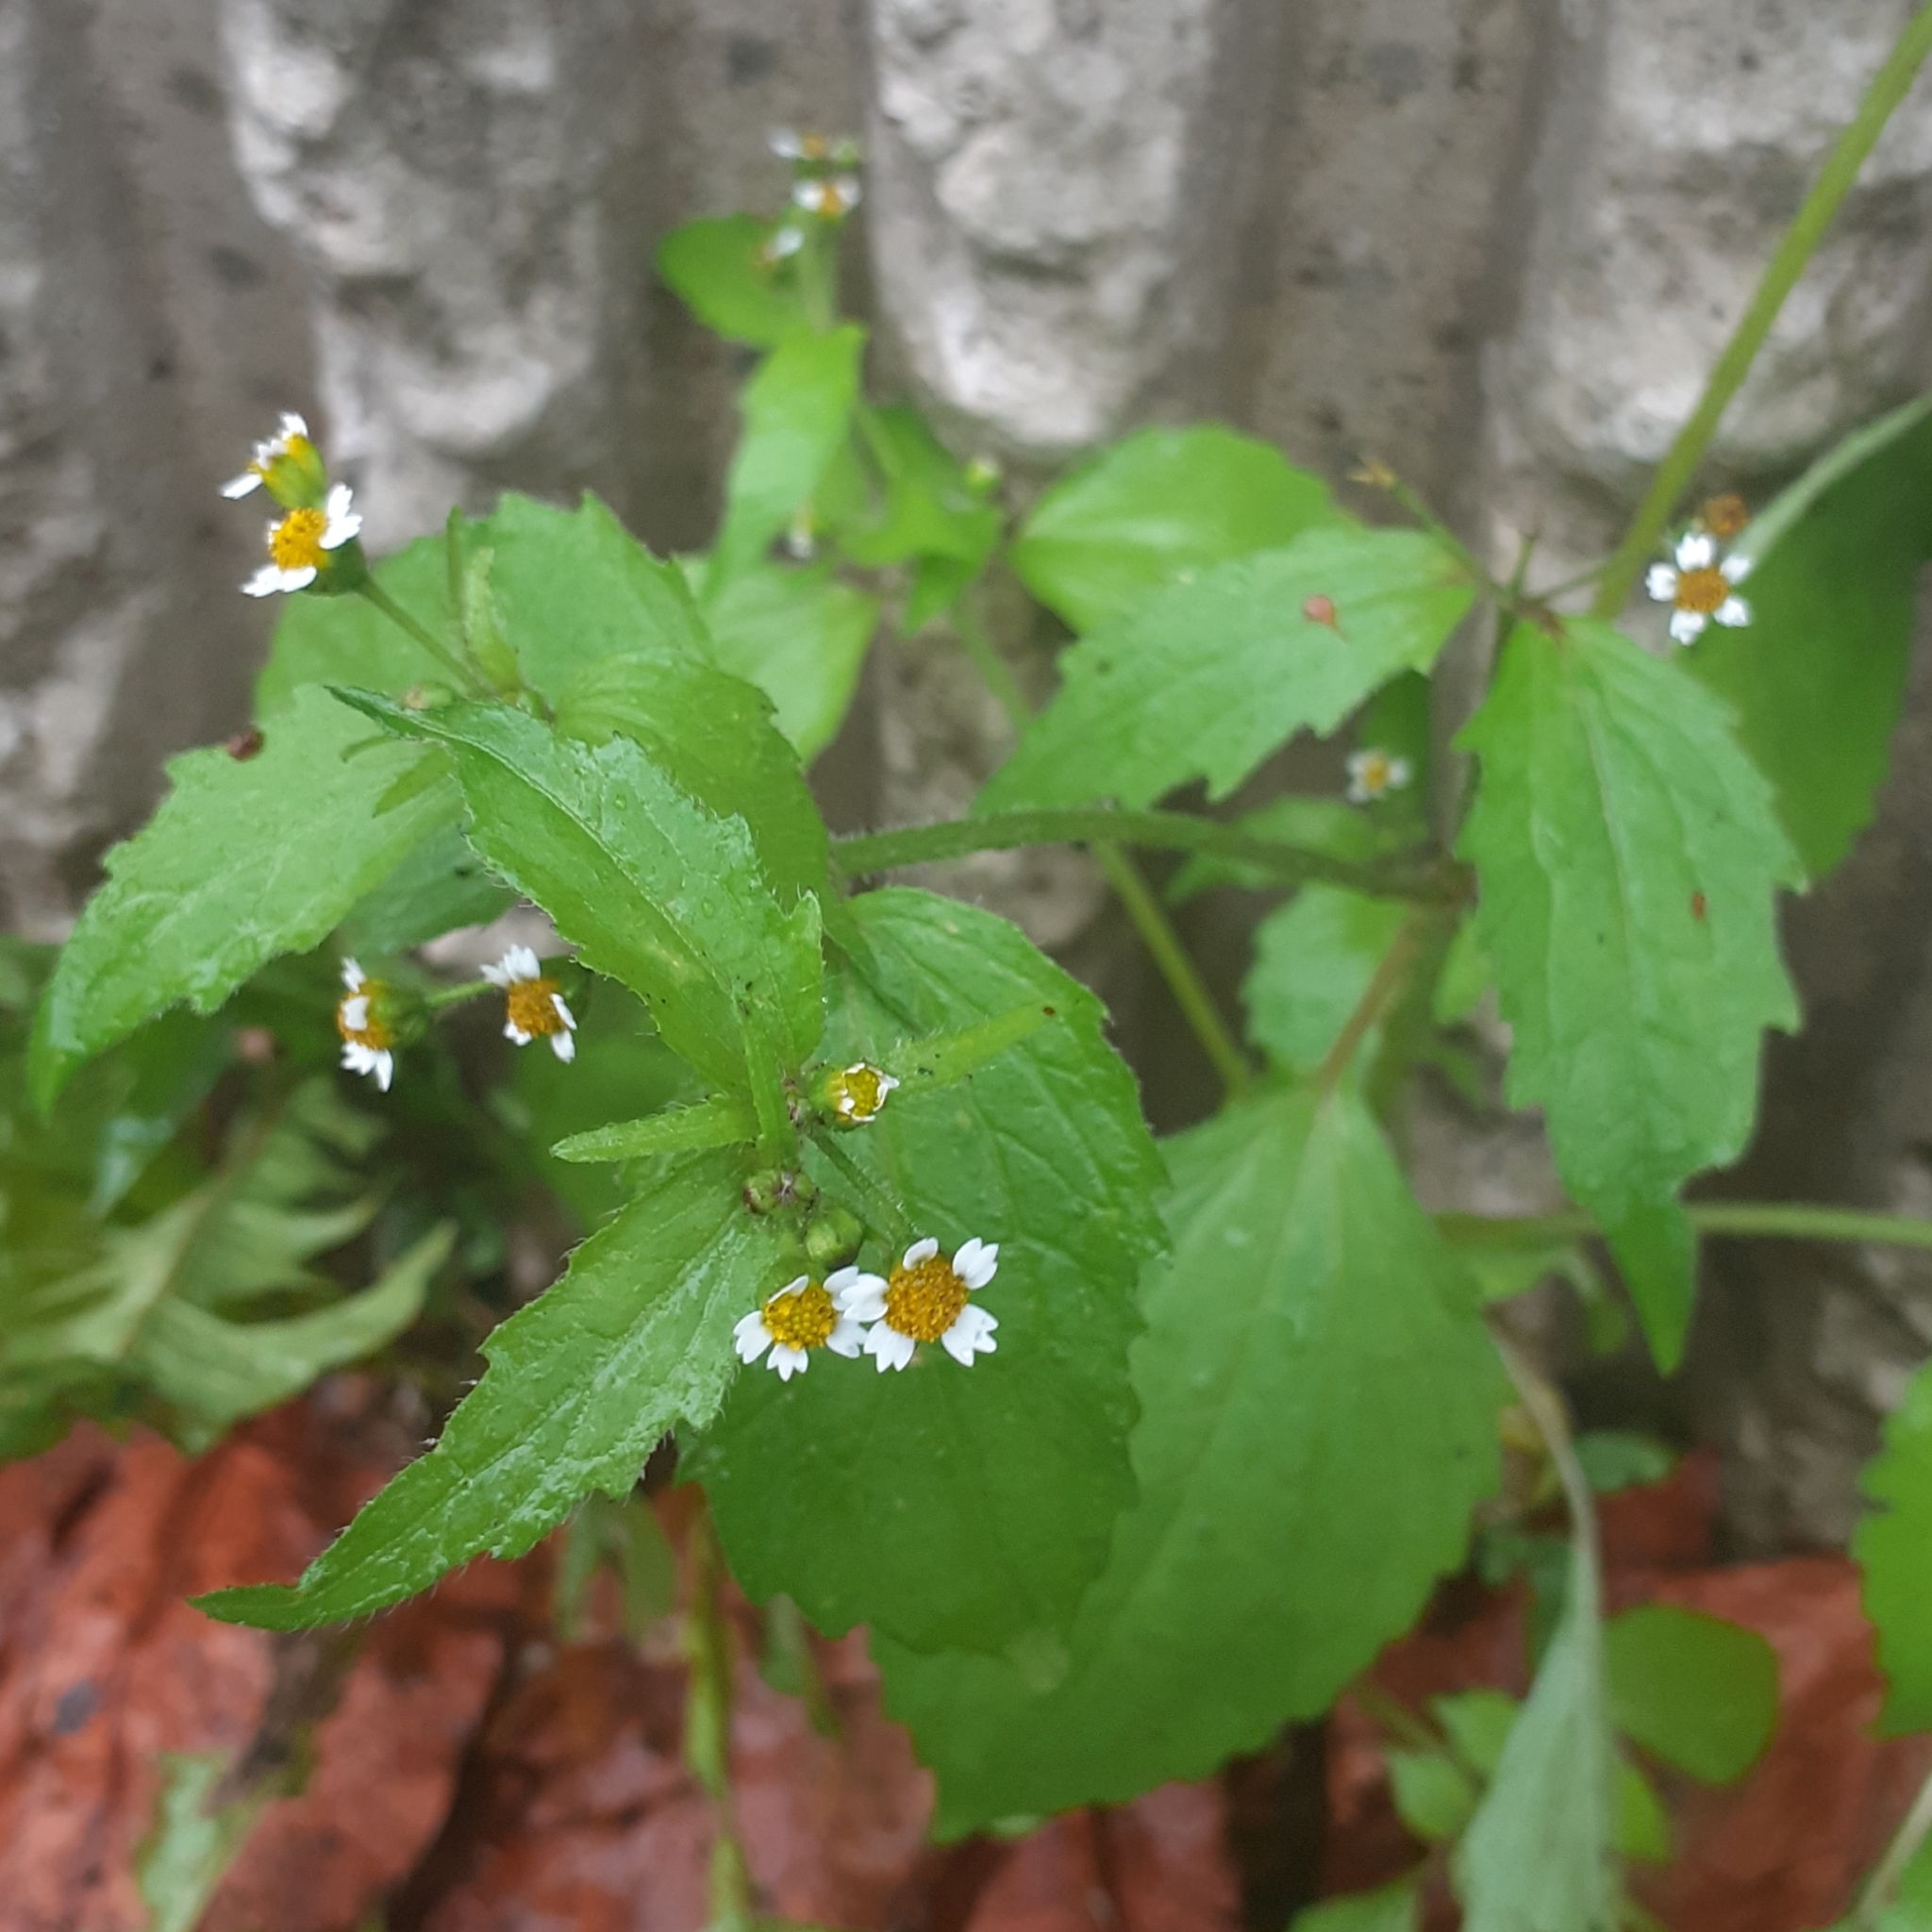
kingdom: Plantae
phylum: Tracheophyta
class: Magnoliopsida
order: Asterales
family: Asteraceae
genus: Galinsoga
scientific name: Galinsoga quadriradiata
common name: Shaggy soldier
